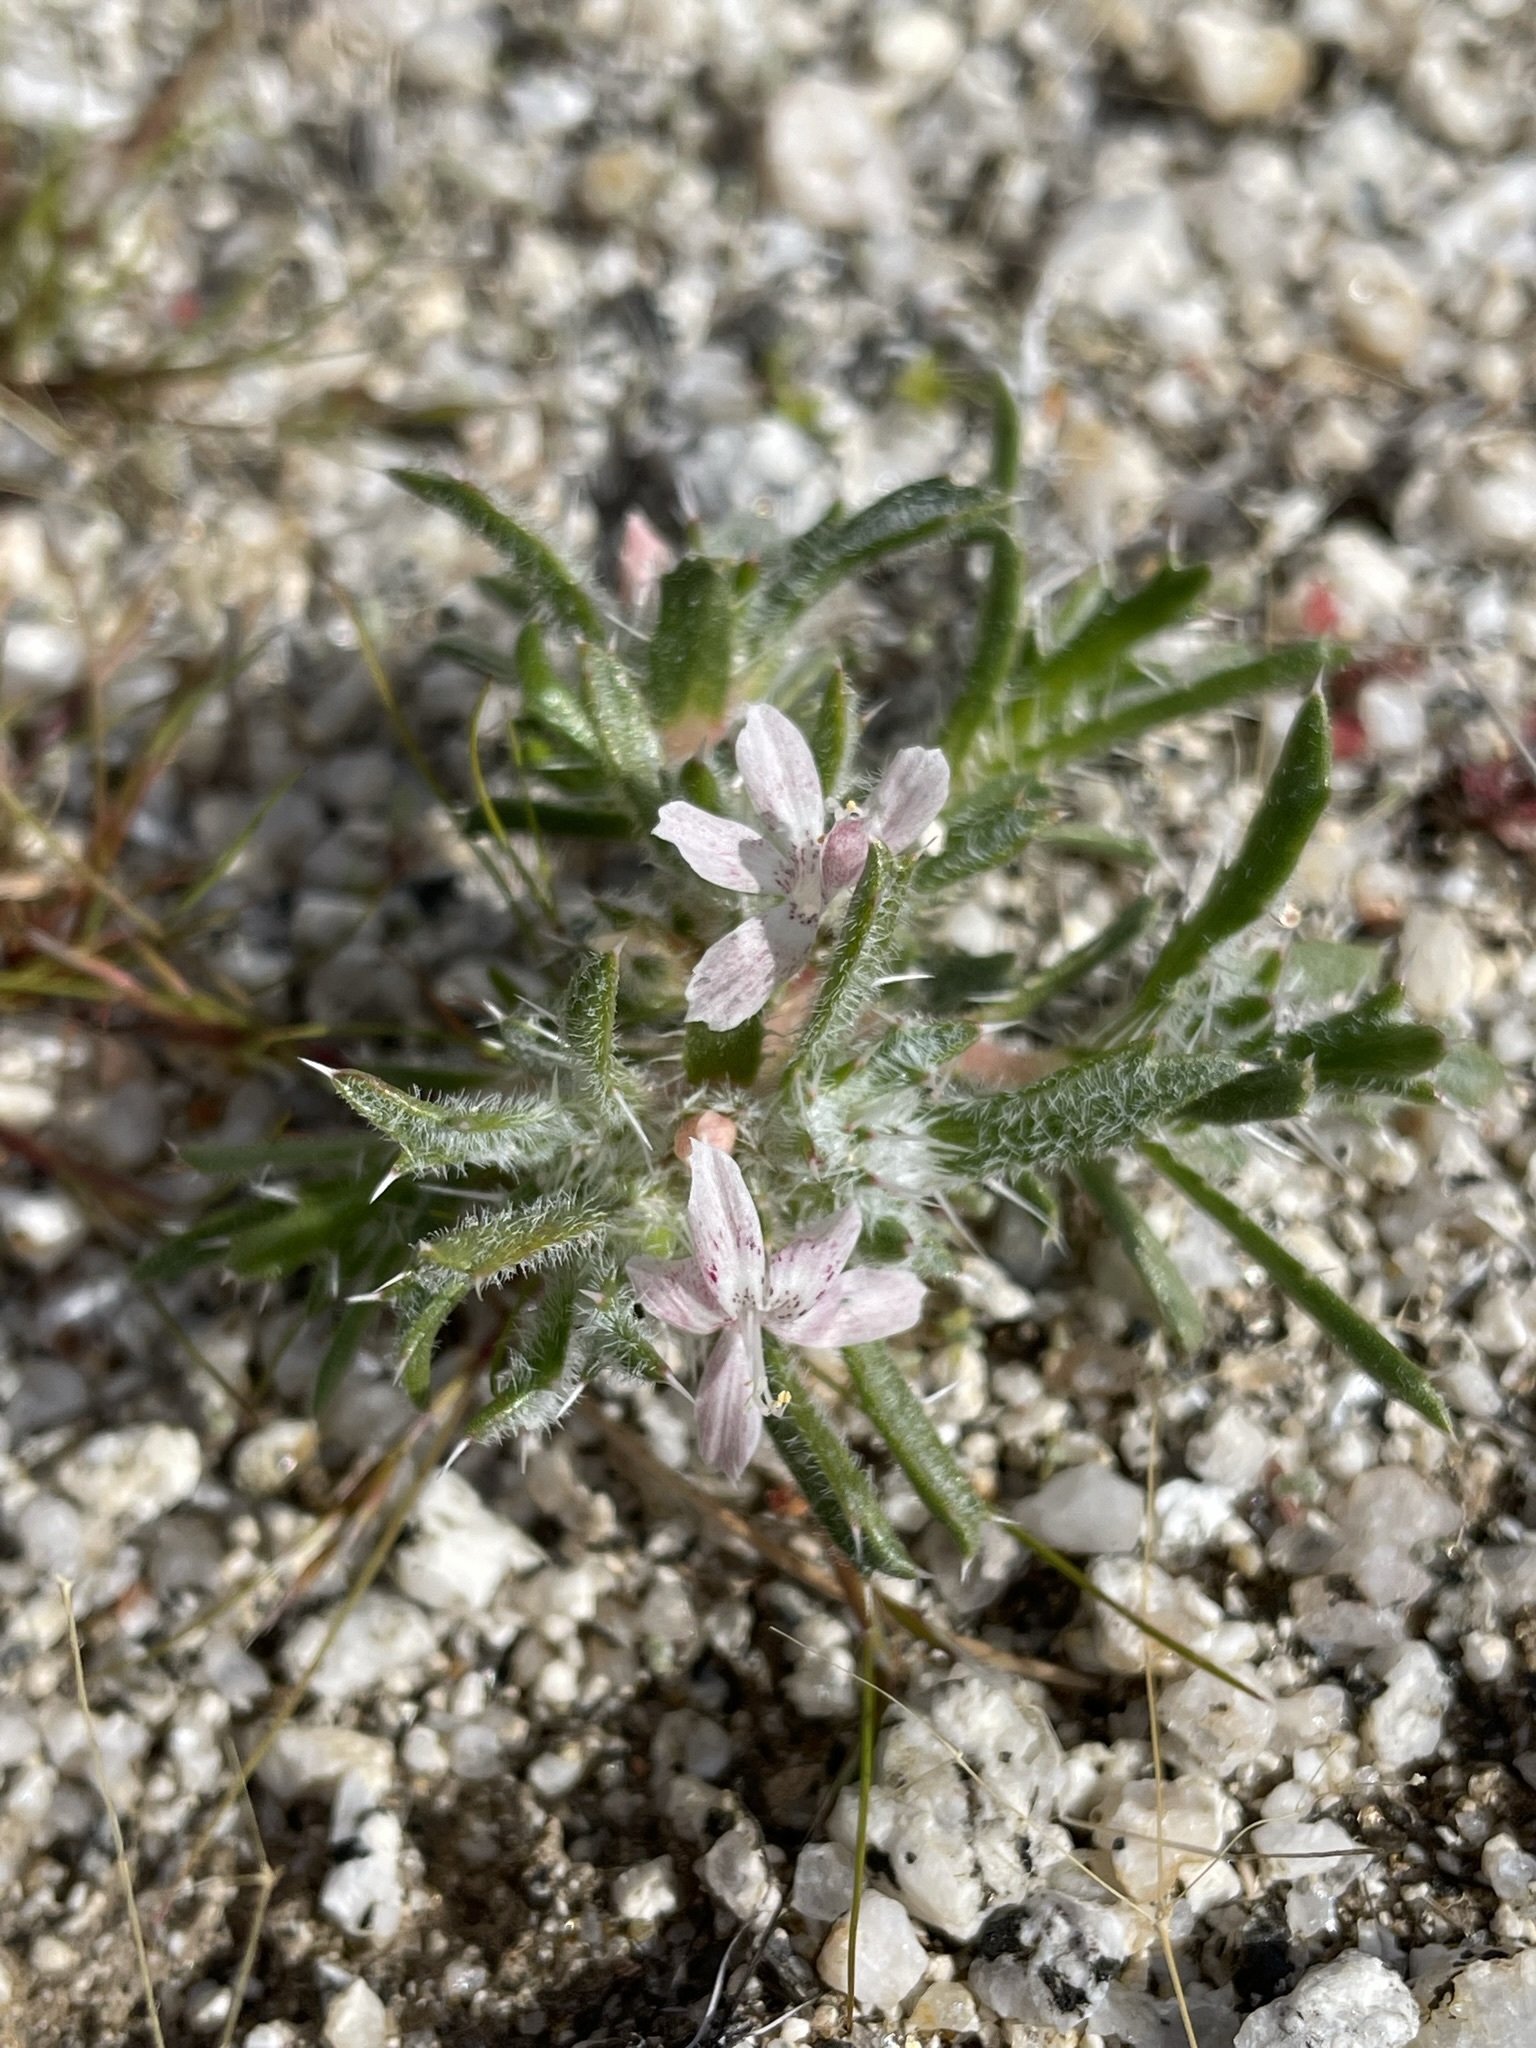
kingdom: Plantae
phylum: Tracheophyta
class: Magnoliopsida
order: Ericales
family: Polemoniaceae
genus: Loeseliastrum
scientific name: Loeseliastrum schottii
